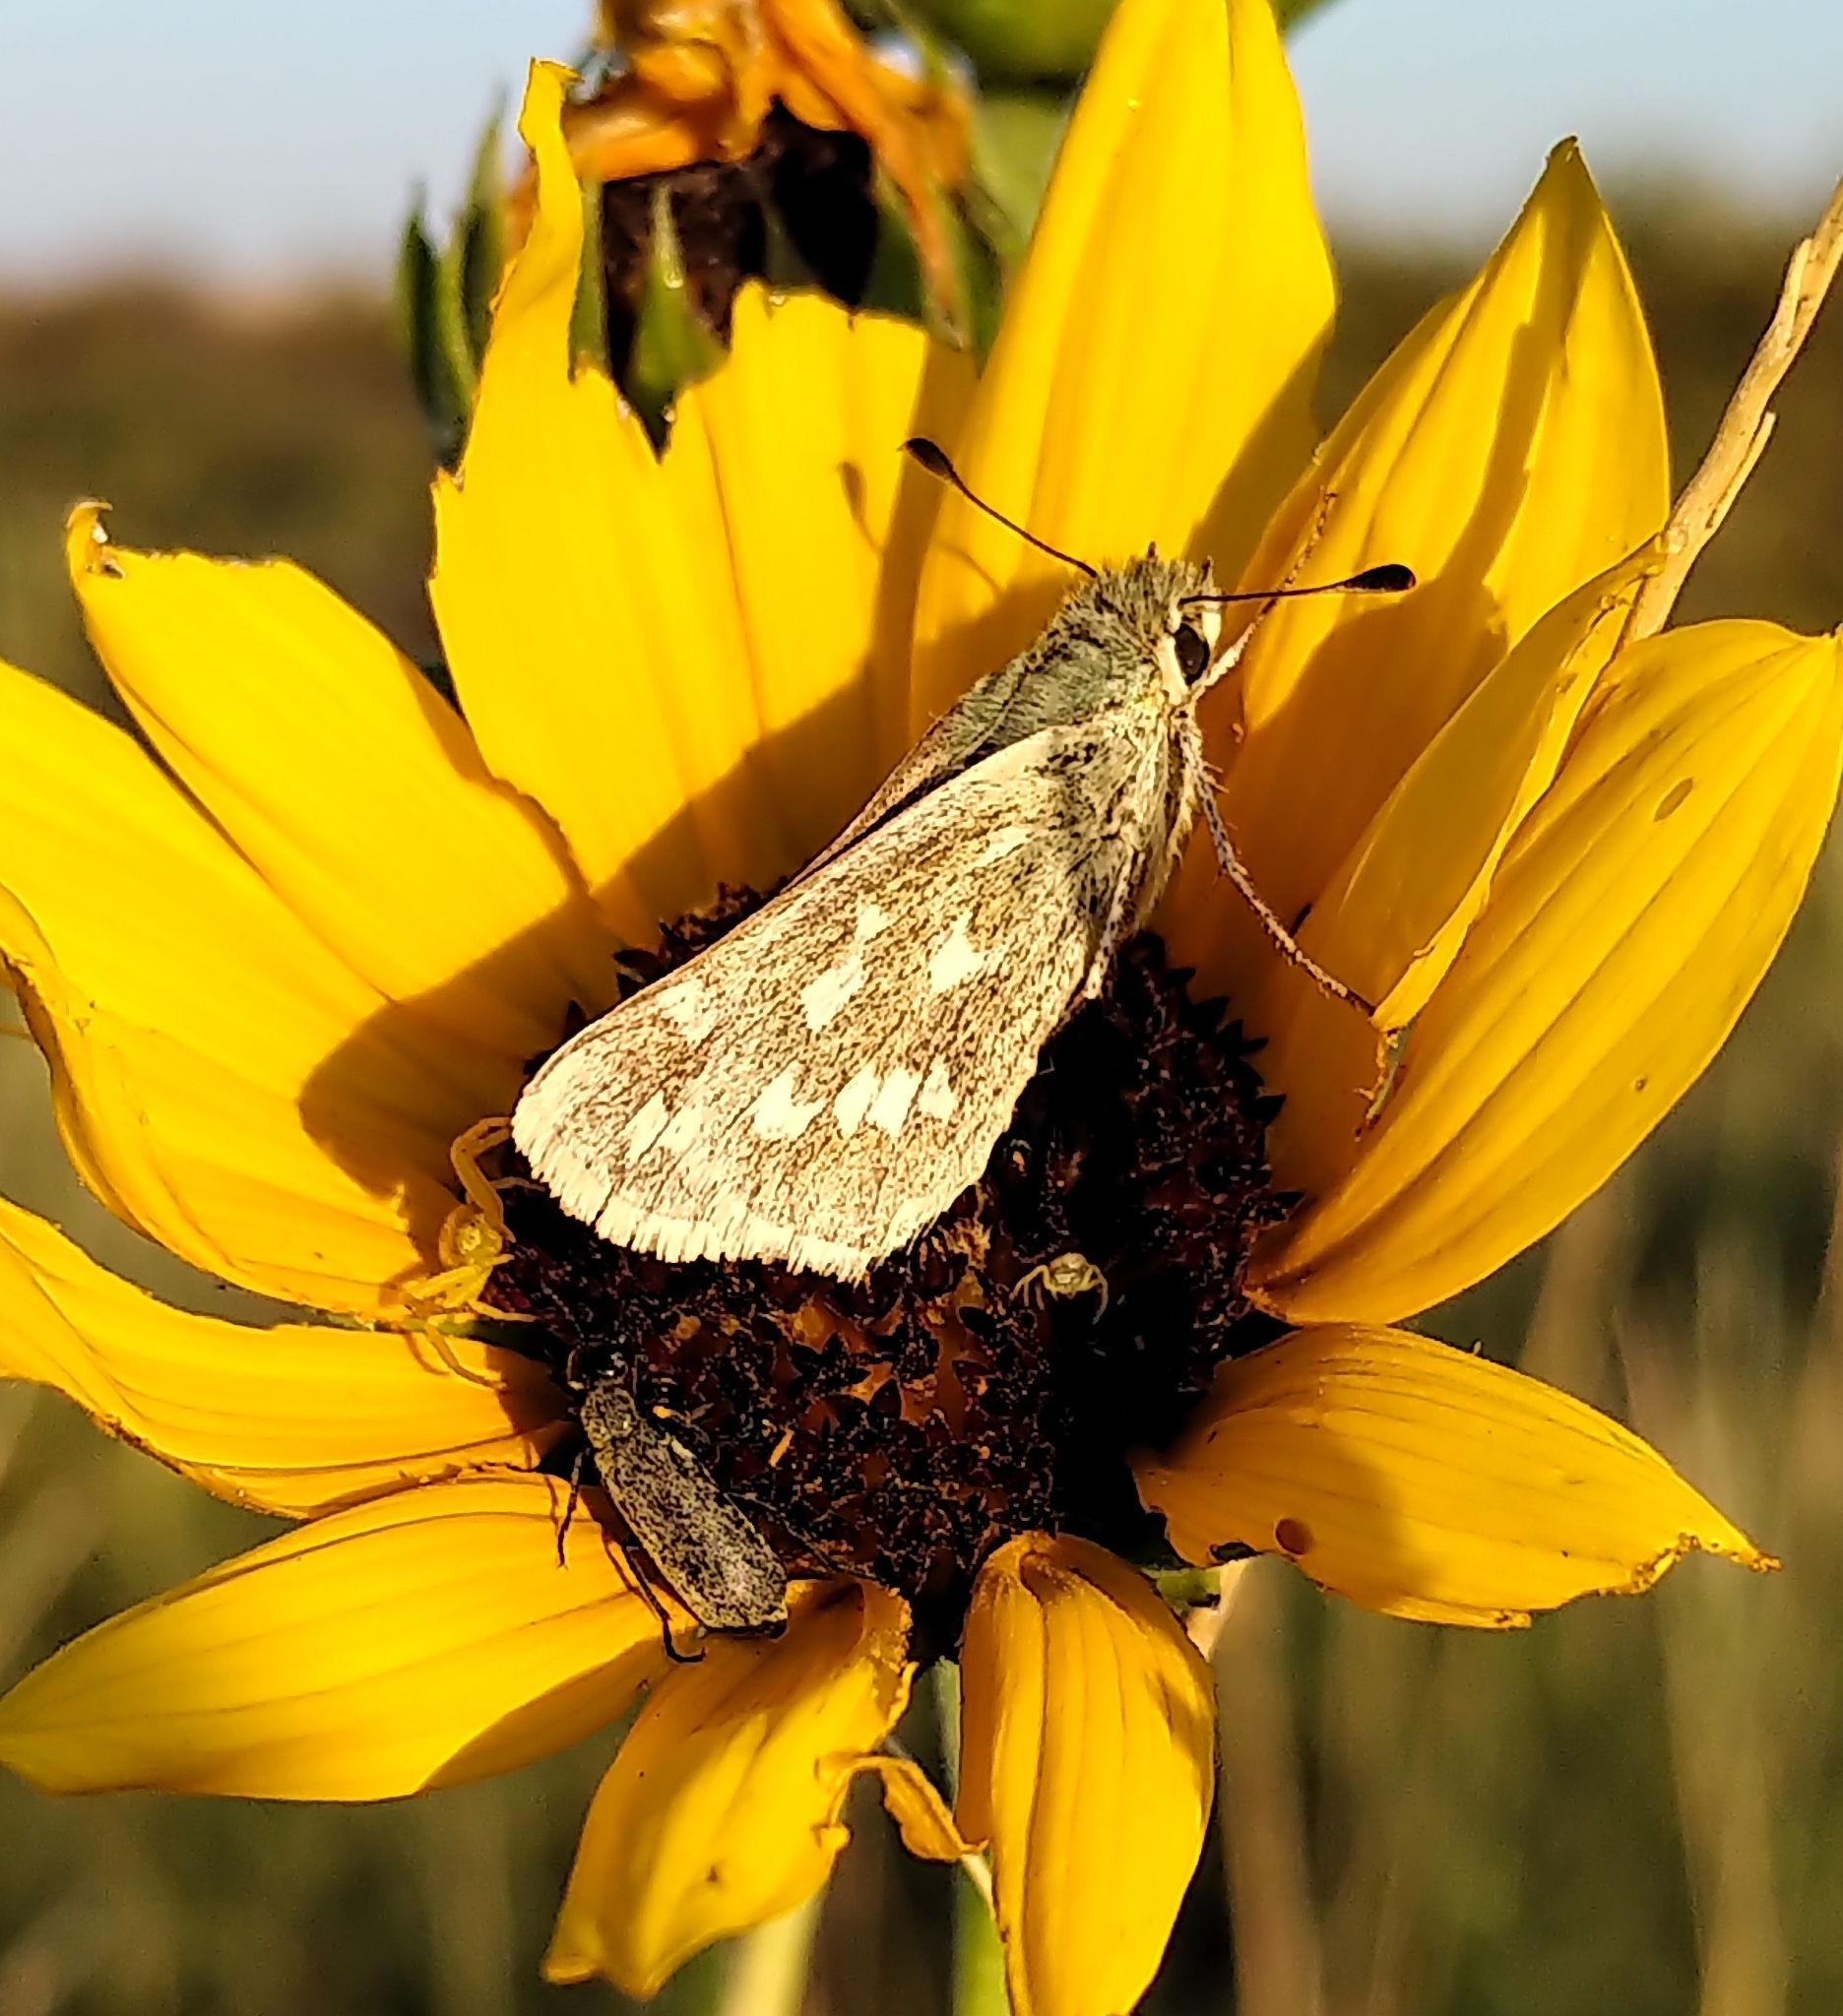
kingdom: Animalia
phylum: Arthropoda
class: Insecta
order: Lepidoptera
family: Hesperiidae
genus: Hesperia
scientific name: Hesperia comma
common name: Common branded skipper
